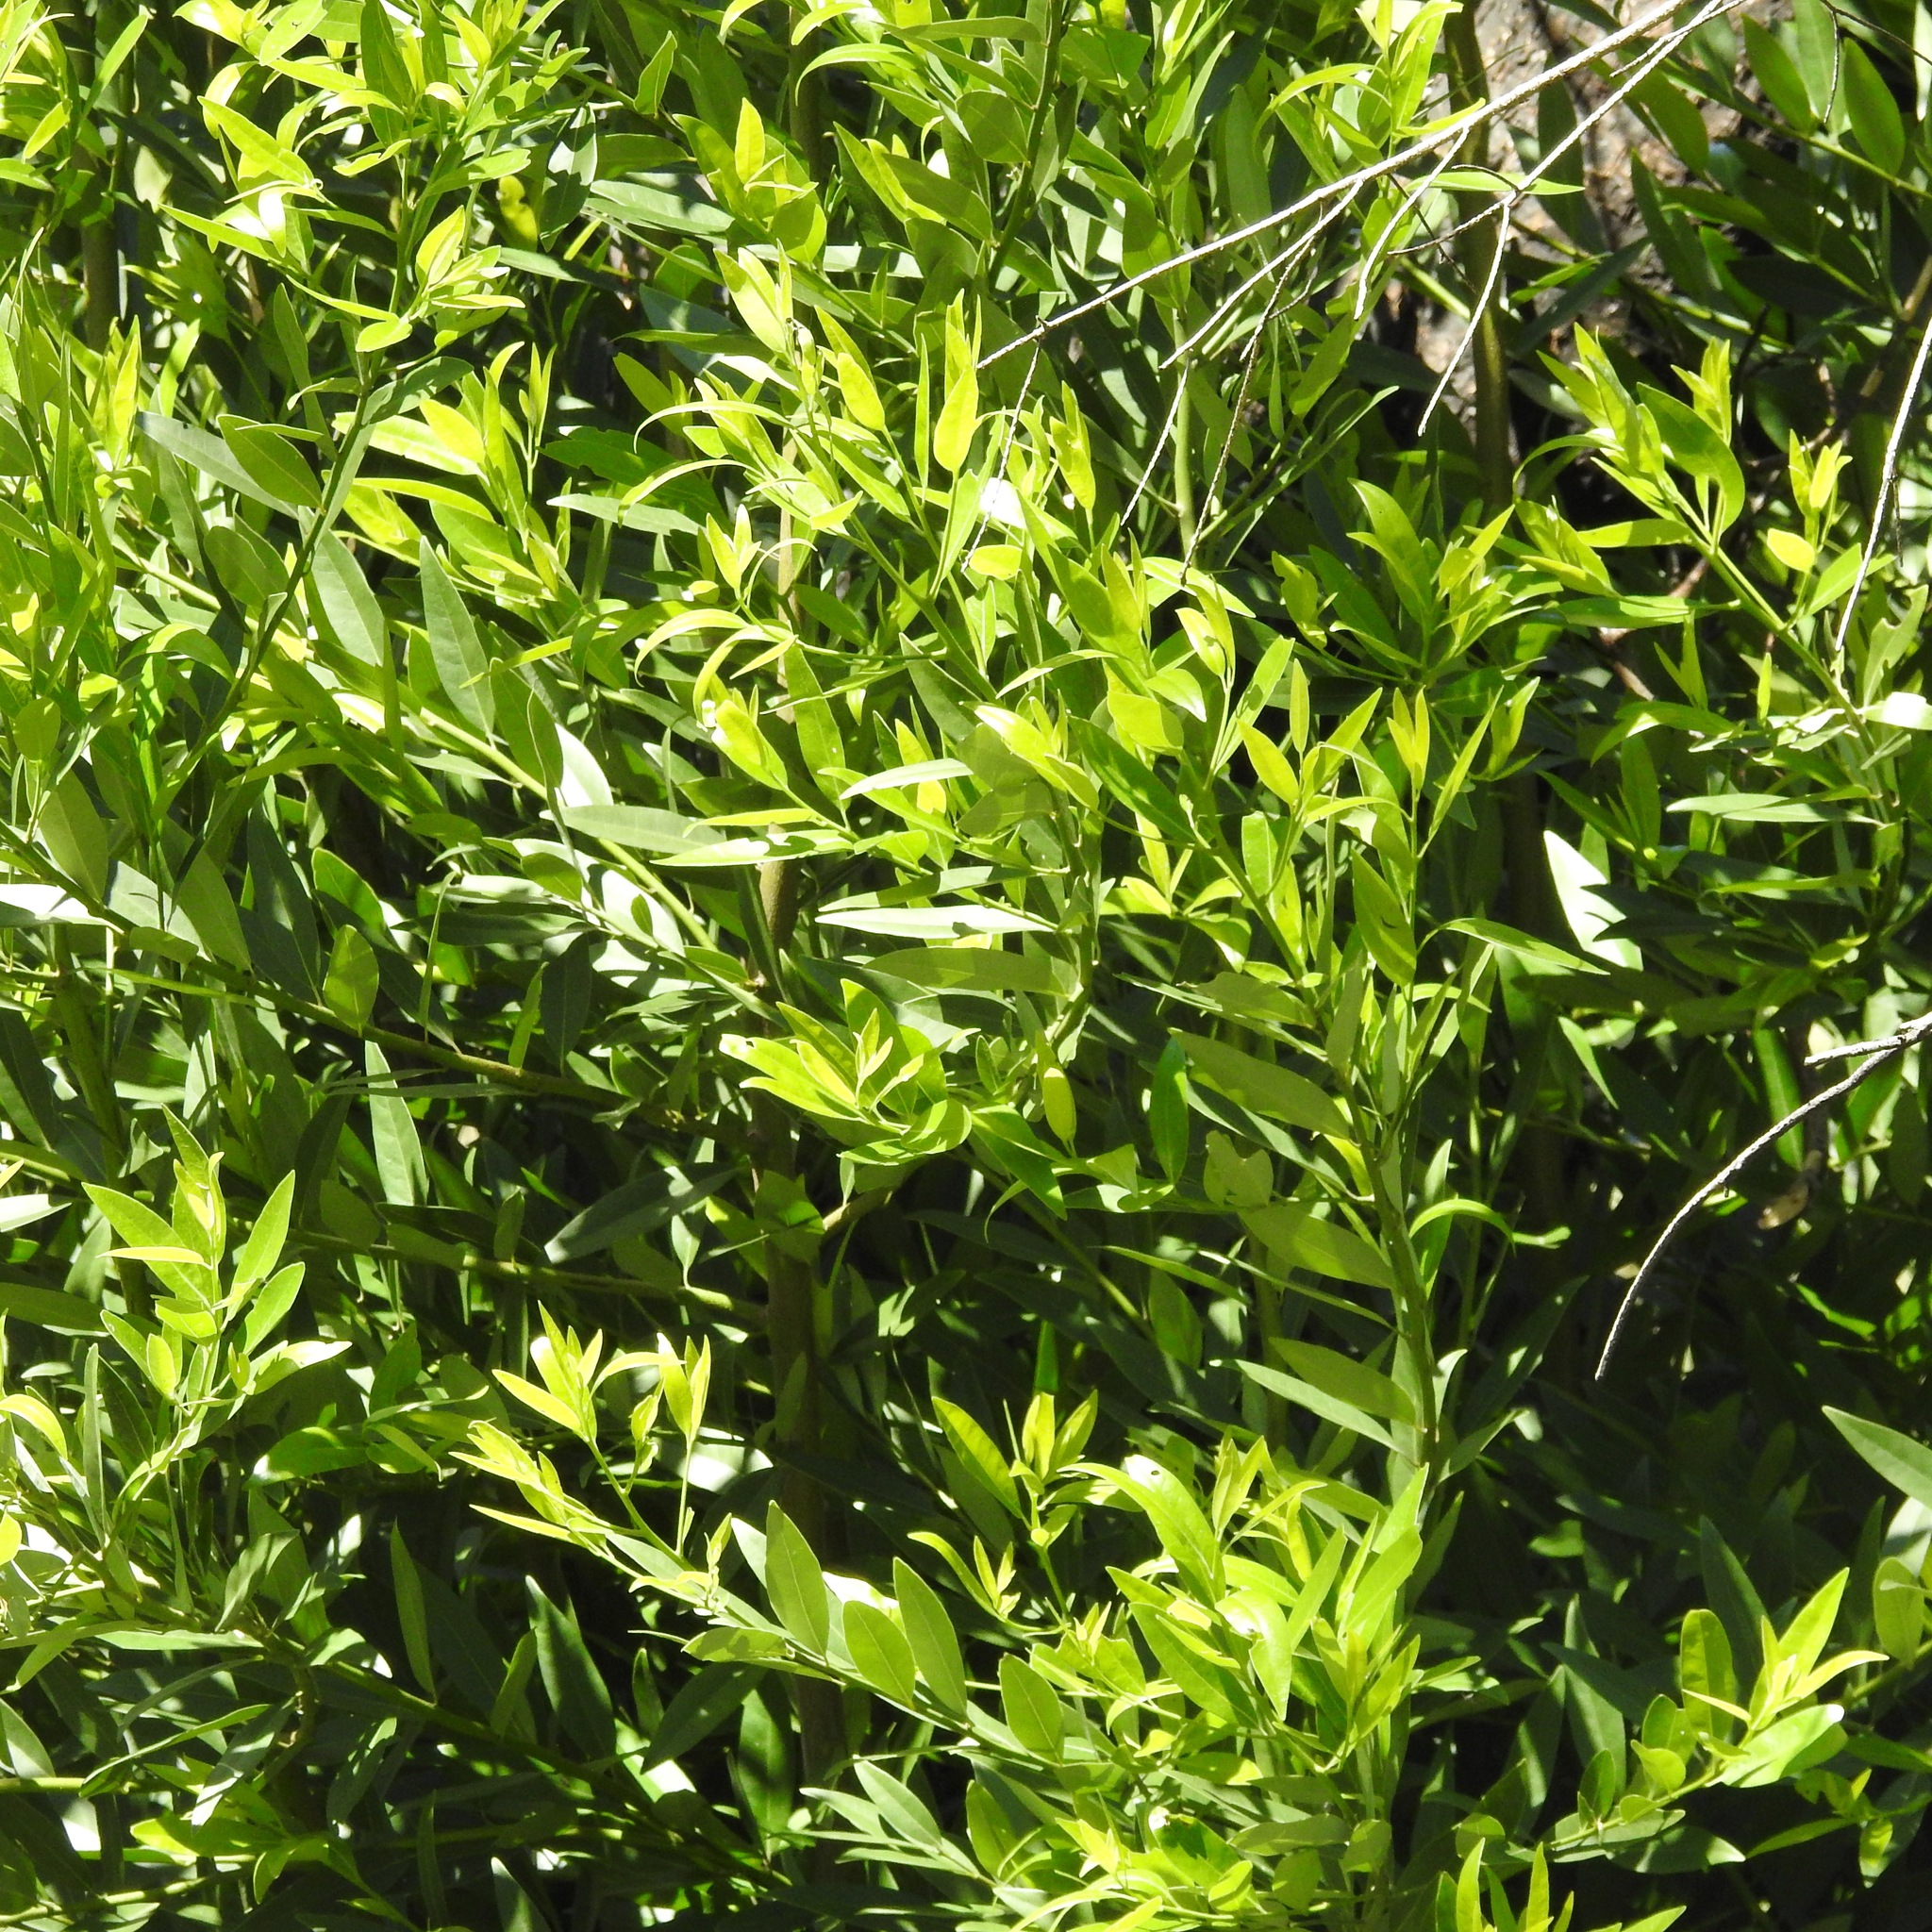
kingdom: Plantae
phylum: Tracheophyta
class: Magnoliopsida
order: Laurales
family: Lauraceae
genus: Umbellularia
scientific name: Umbellularia californica
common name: California bay
